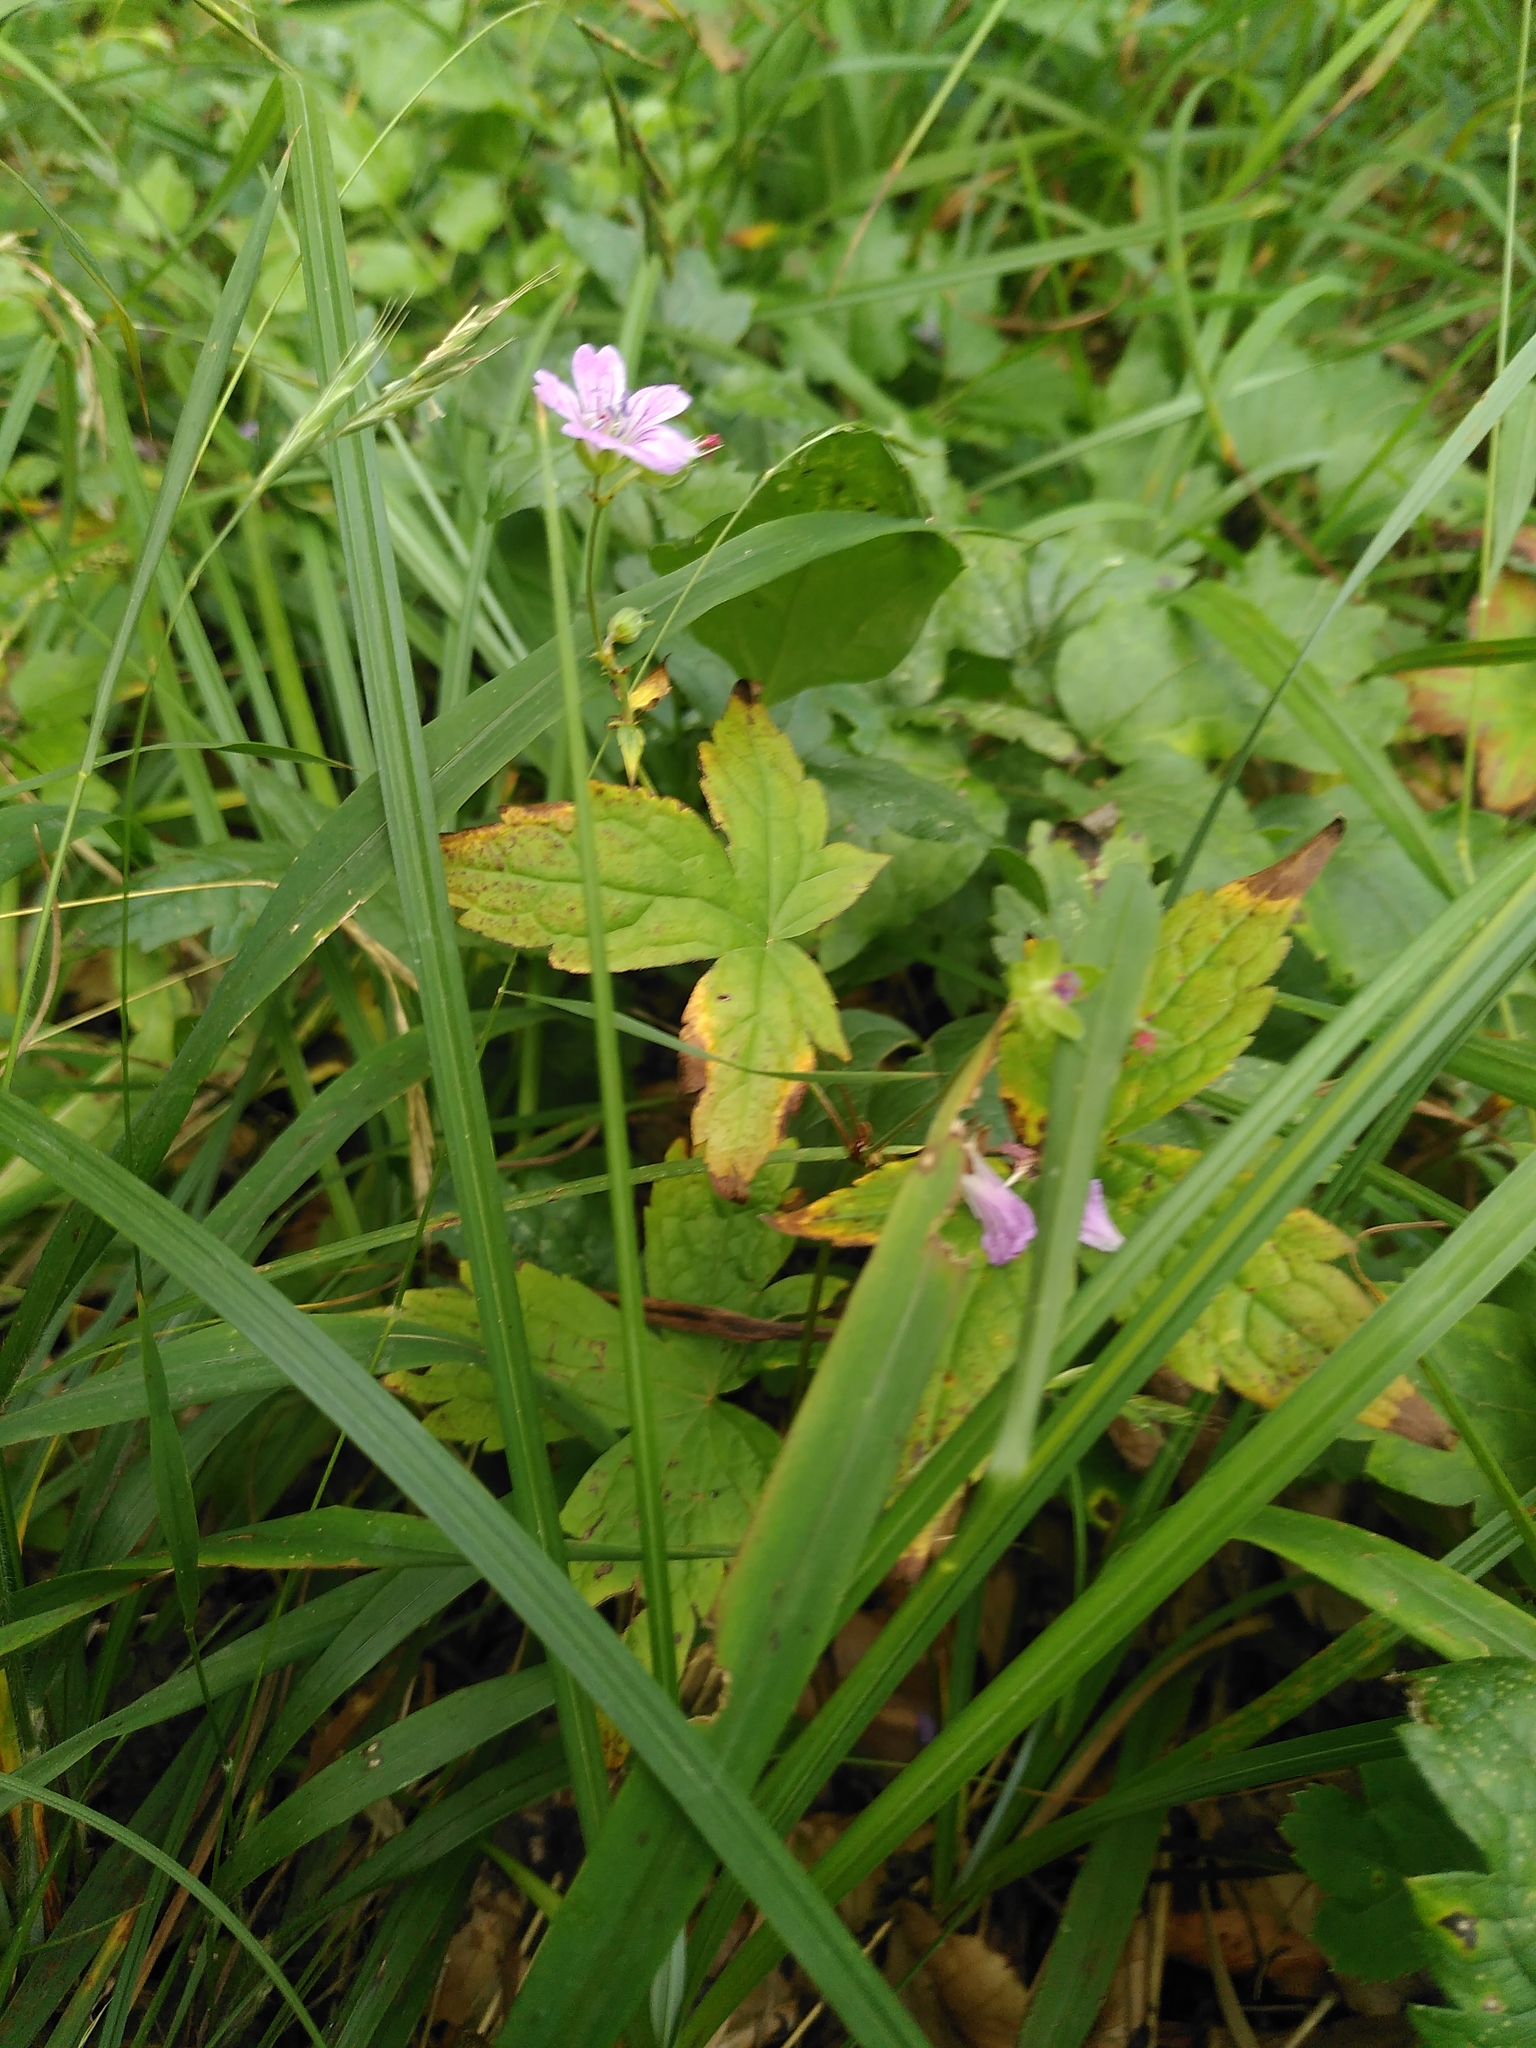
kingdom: Plantae
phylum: Tracheophyta
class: Magnoliopsida
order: Geraniales
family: Geraniaceae
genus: Geranium
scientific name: Geranium nodosum
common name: Knotted crane's-bill
